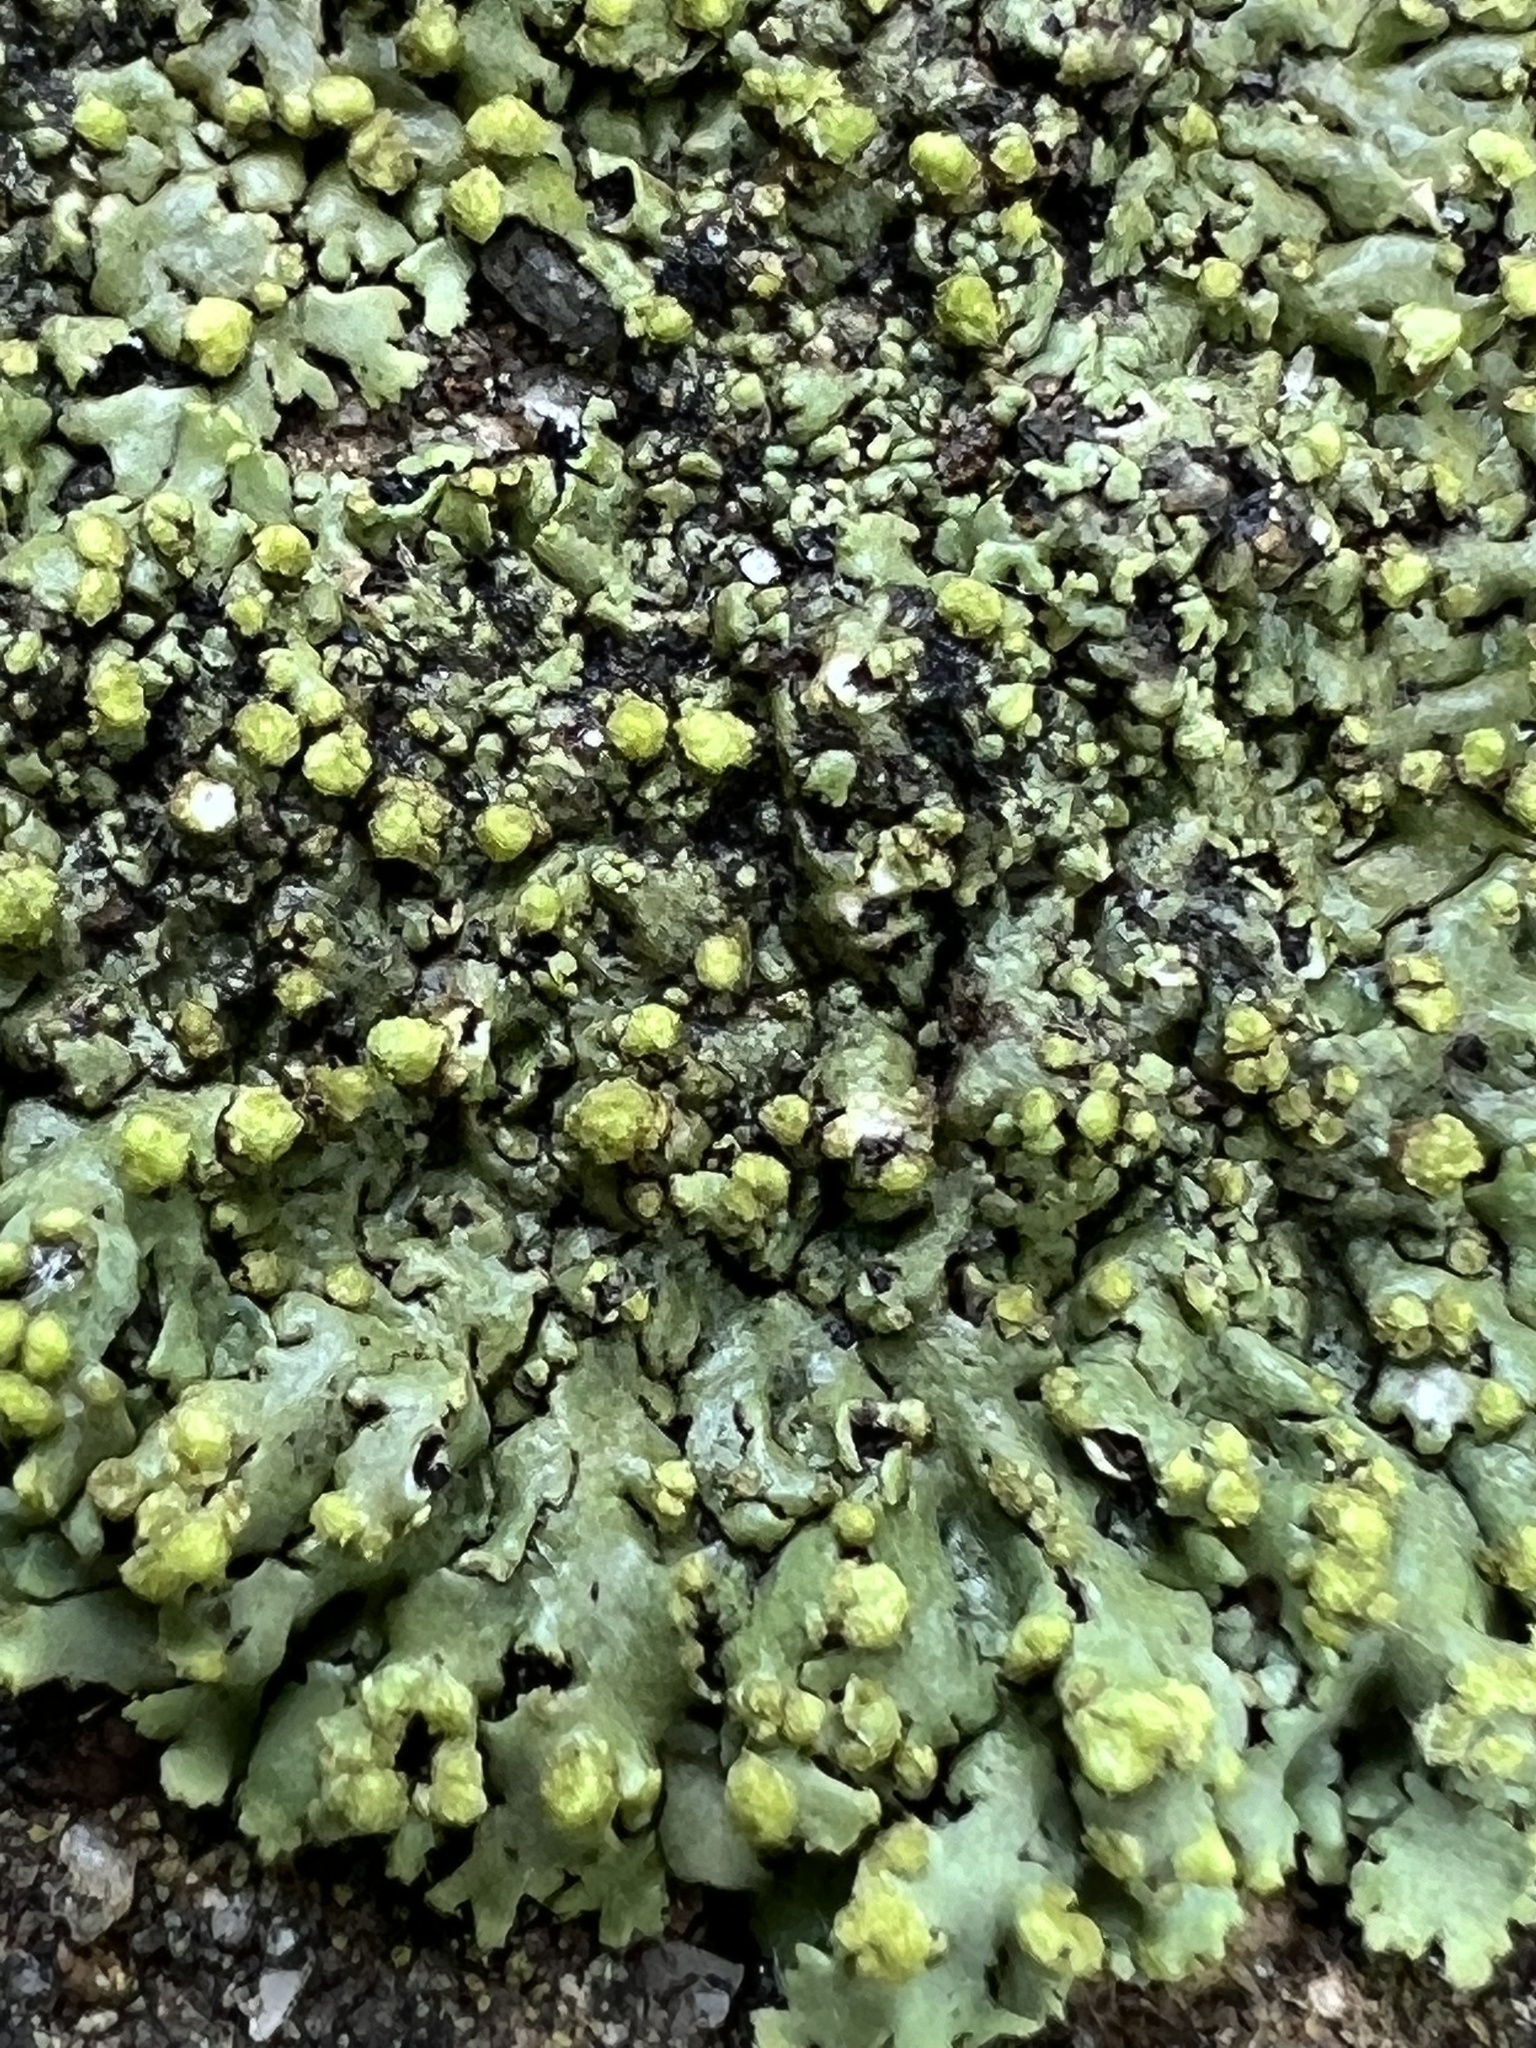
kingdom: Fungi
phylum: Ascomycota
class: Lecanoromycetes
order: Caliciales
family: Physciaceae
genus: Phaeophyscia
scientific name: Phaeophyscia pusilloides
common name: Pom-pom shadow lichen
